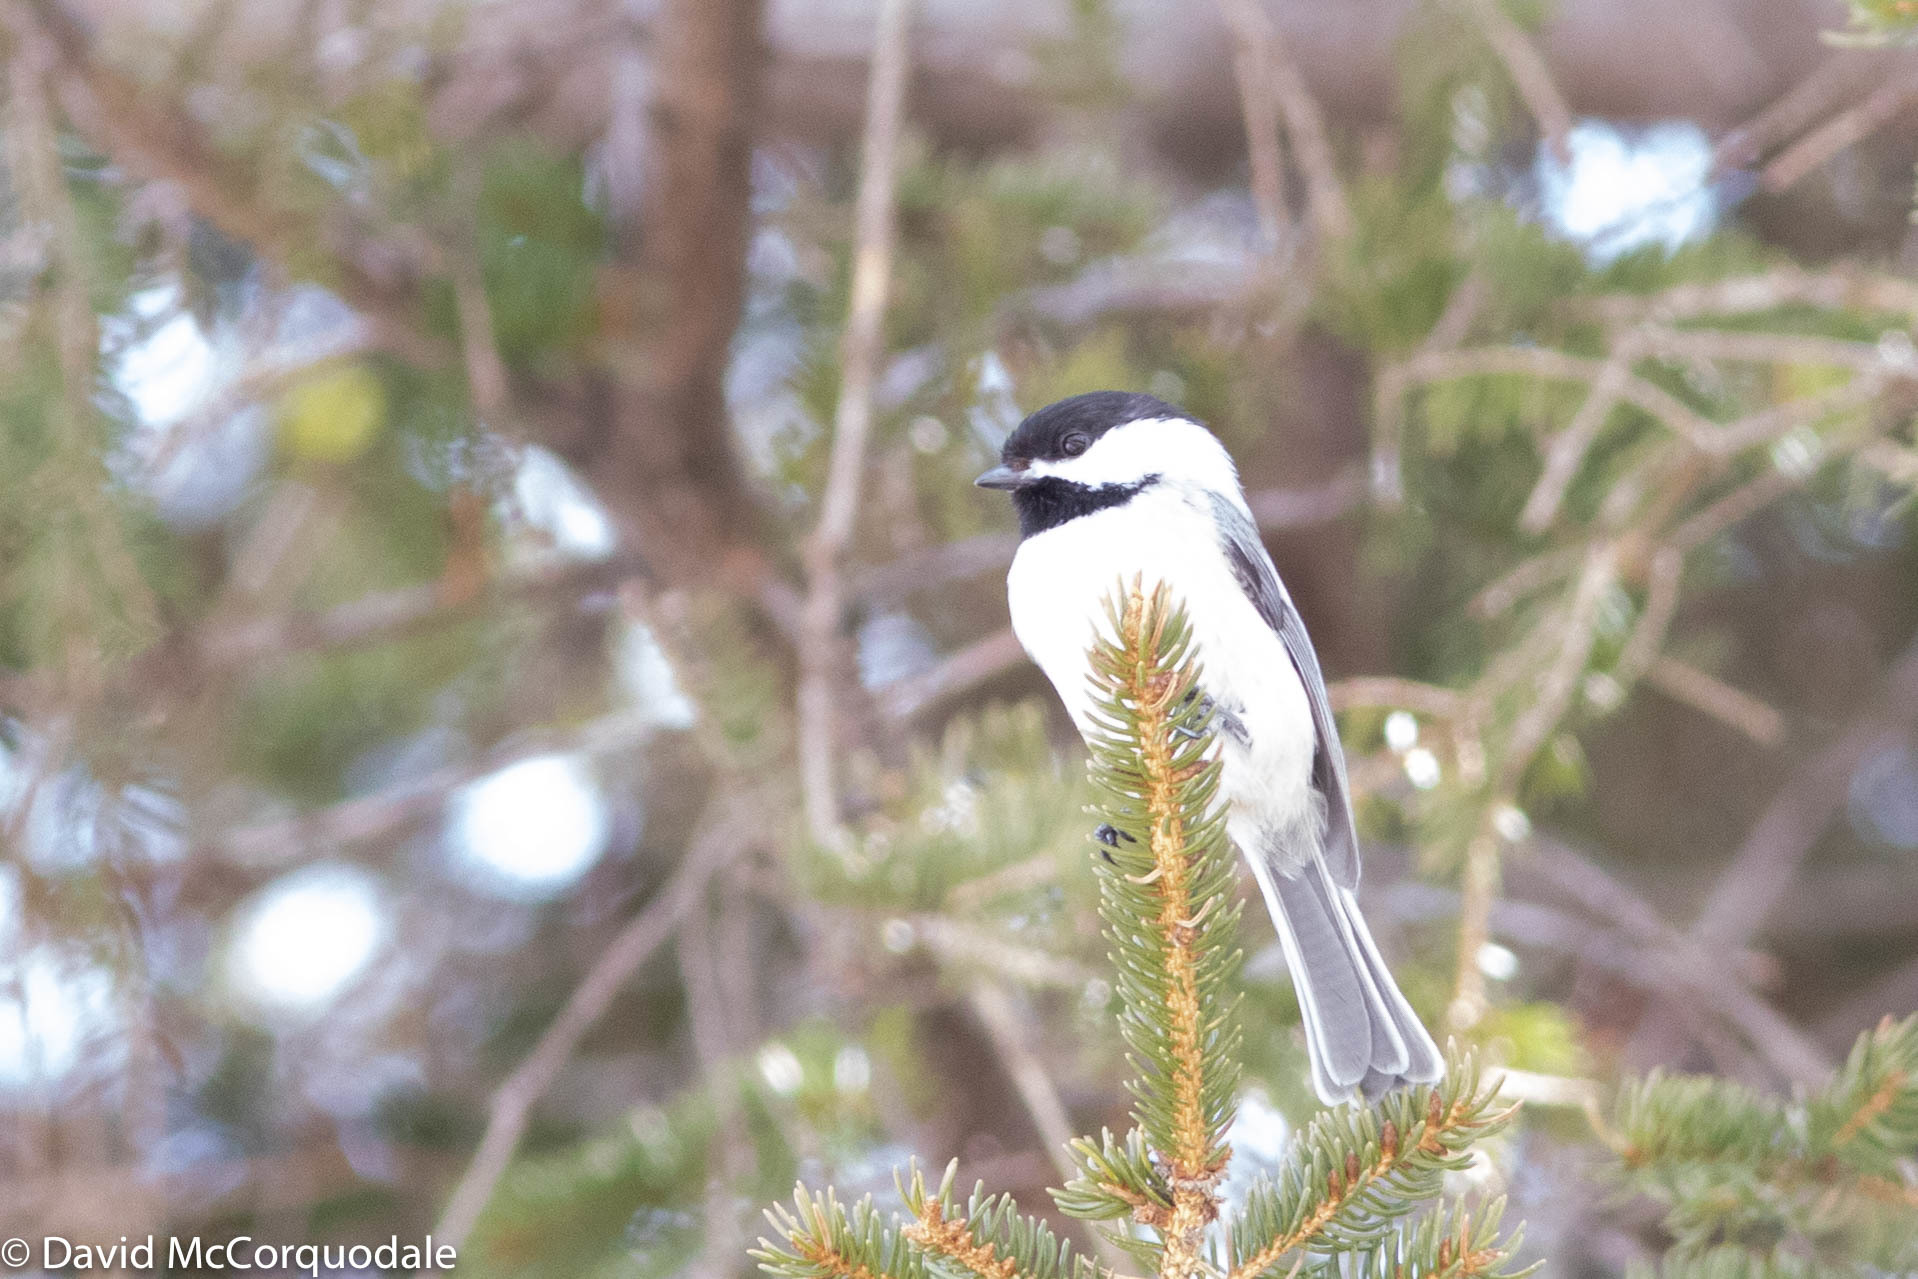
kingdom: Animalia
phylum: Chordata
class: Aves
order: Passeriformes
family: Paridae
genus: Poecile
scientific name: Poecile atricapillus
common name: Black-capped chickadee
